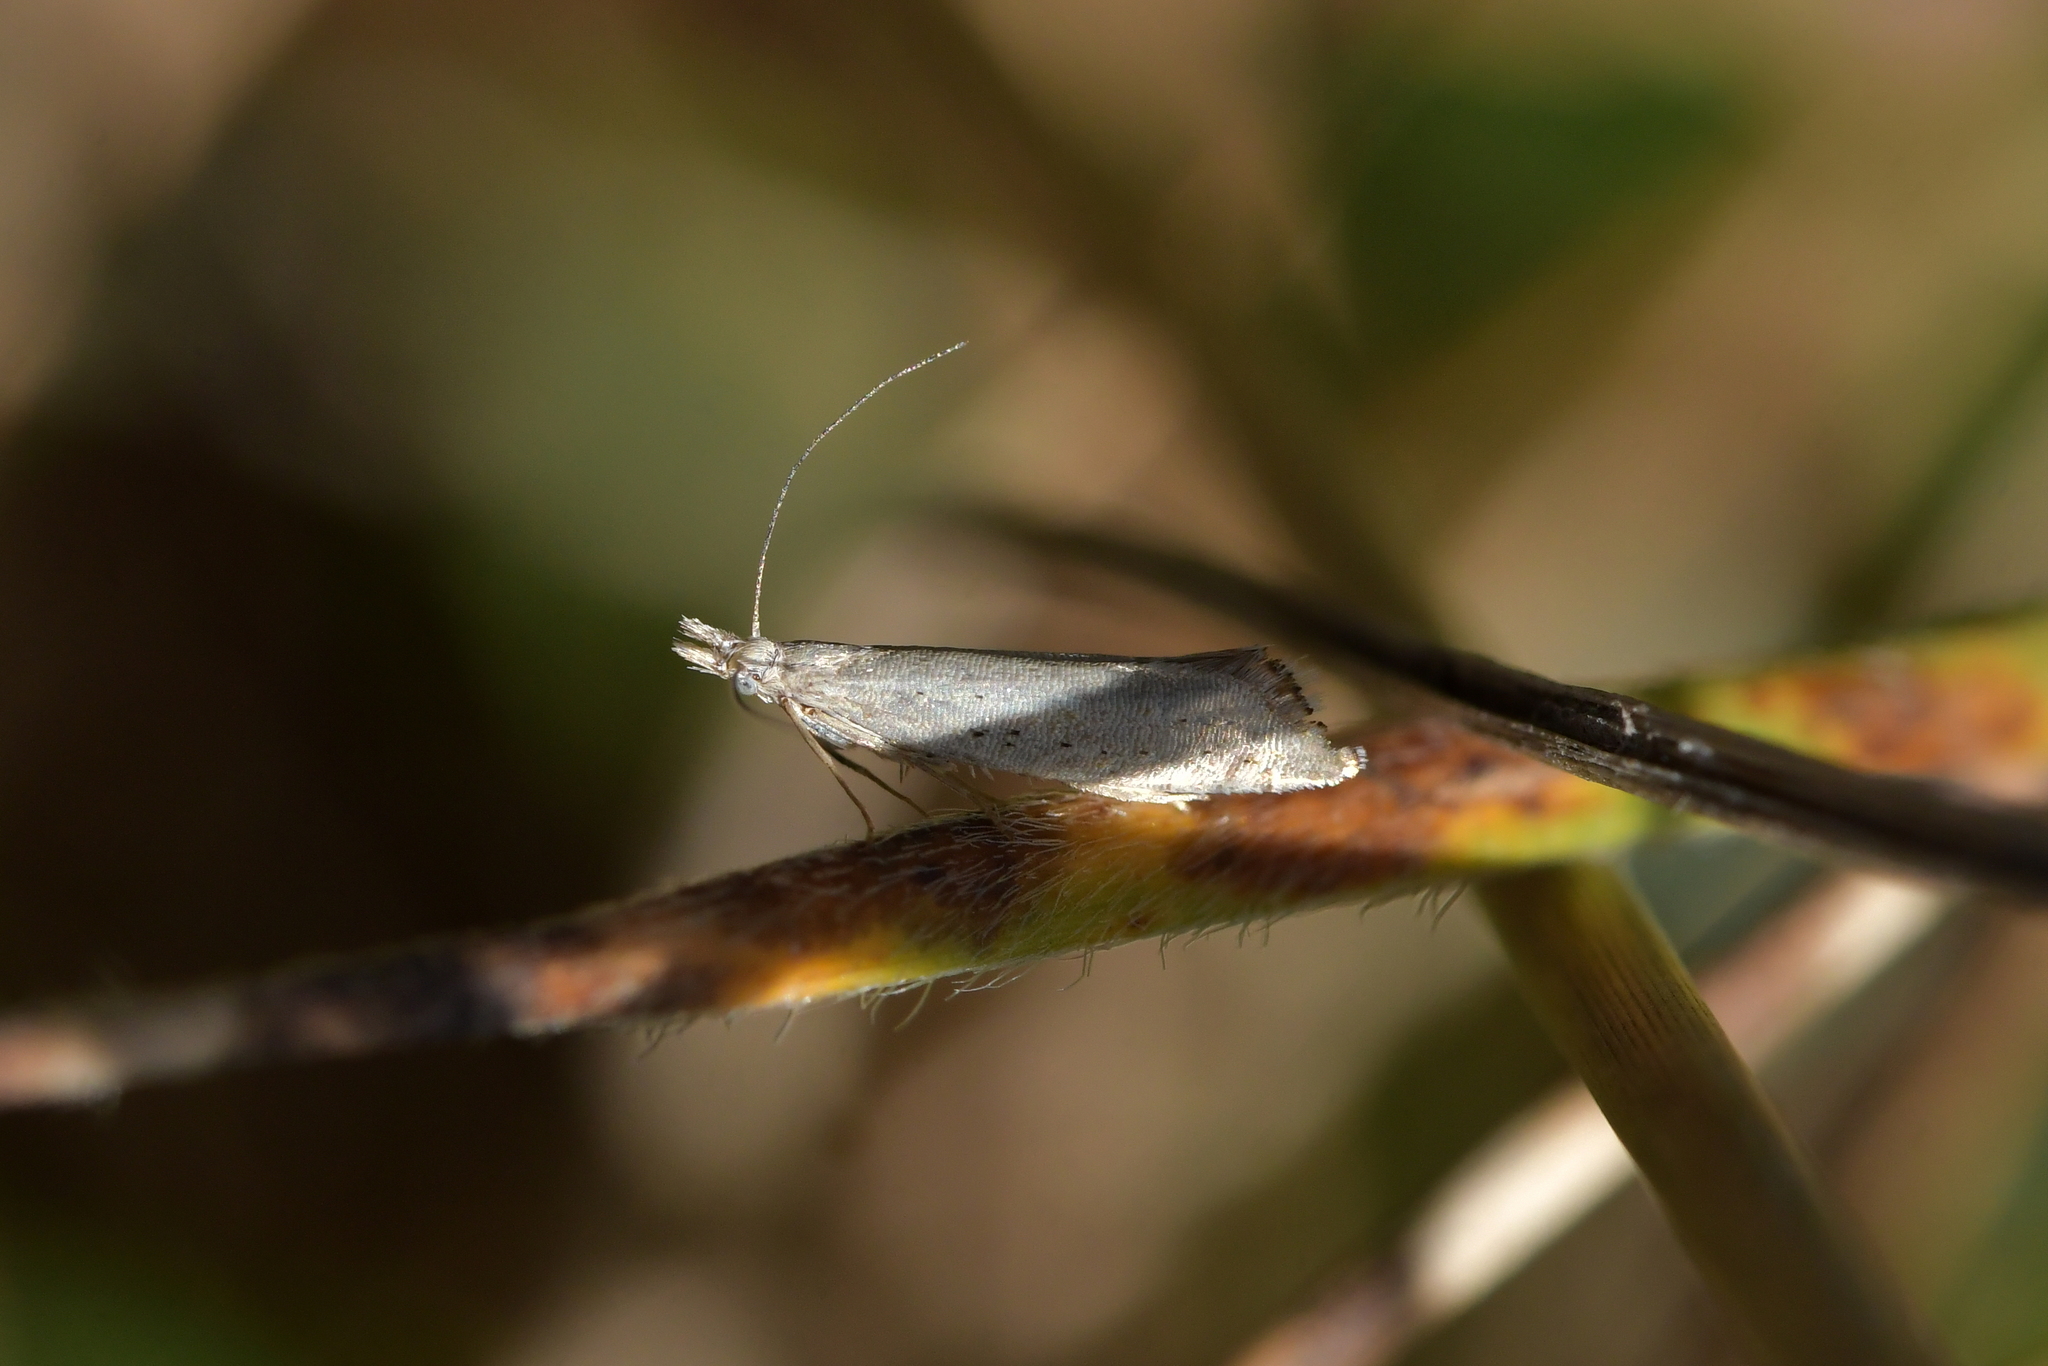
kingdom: Animalia
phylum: Arthropoda
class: Insecta
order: Lepidoptera
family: Glyphipterigidae
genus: Glyphipterix
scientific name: Glyphipterix achlyoessa
